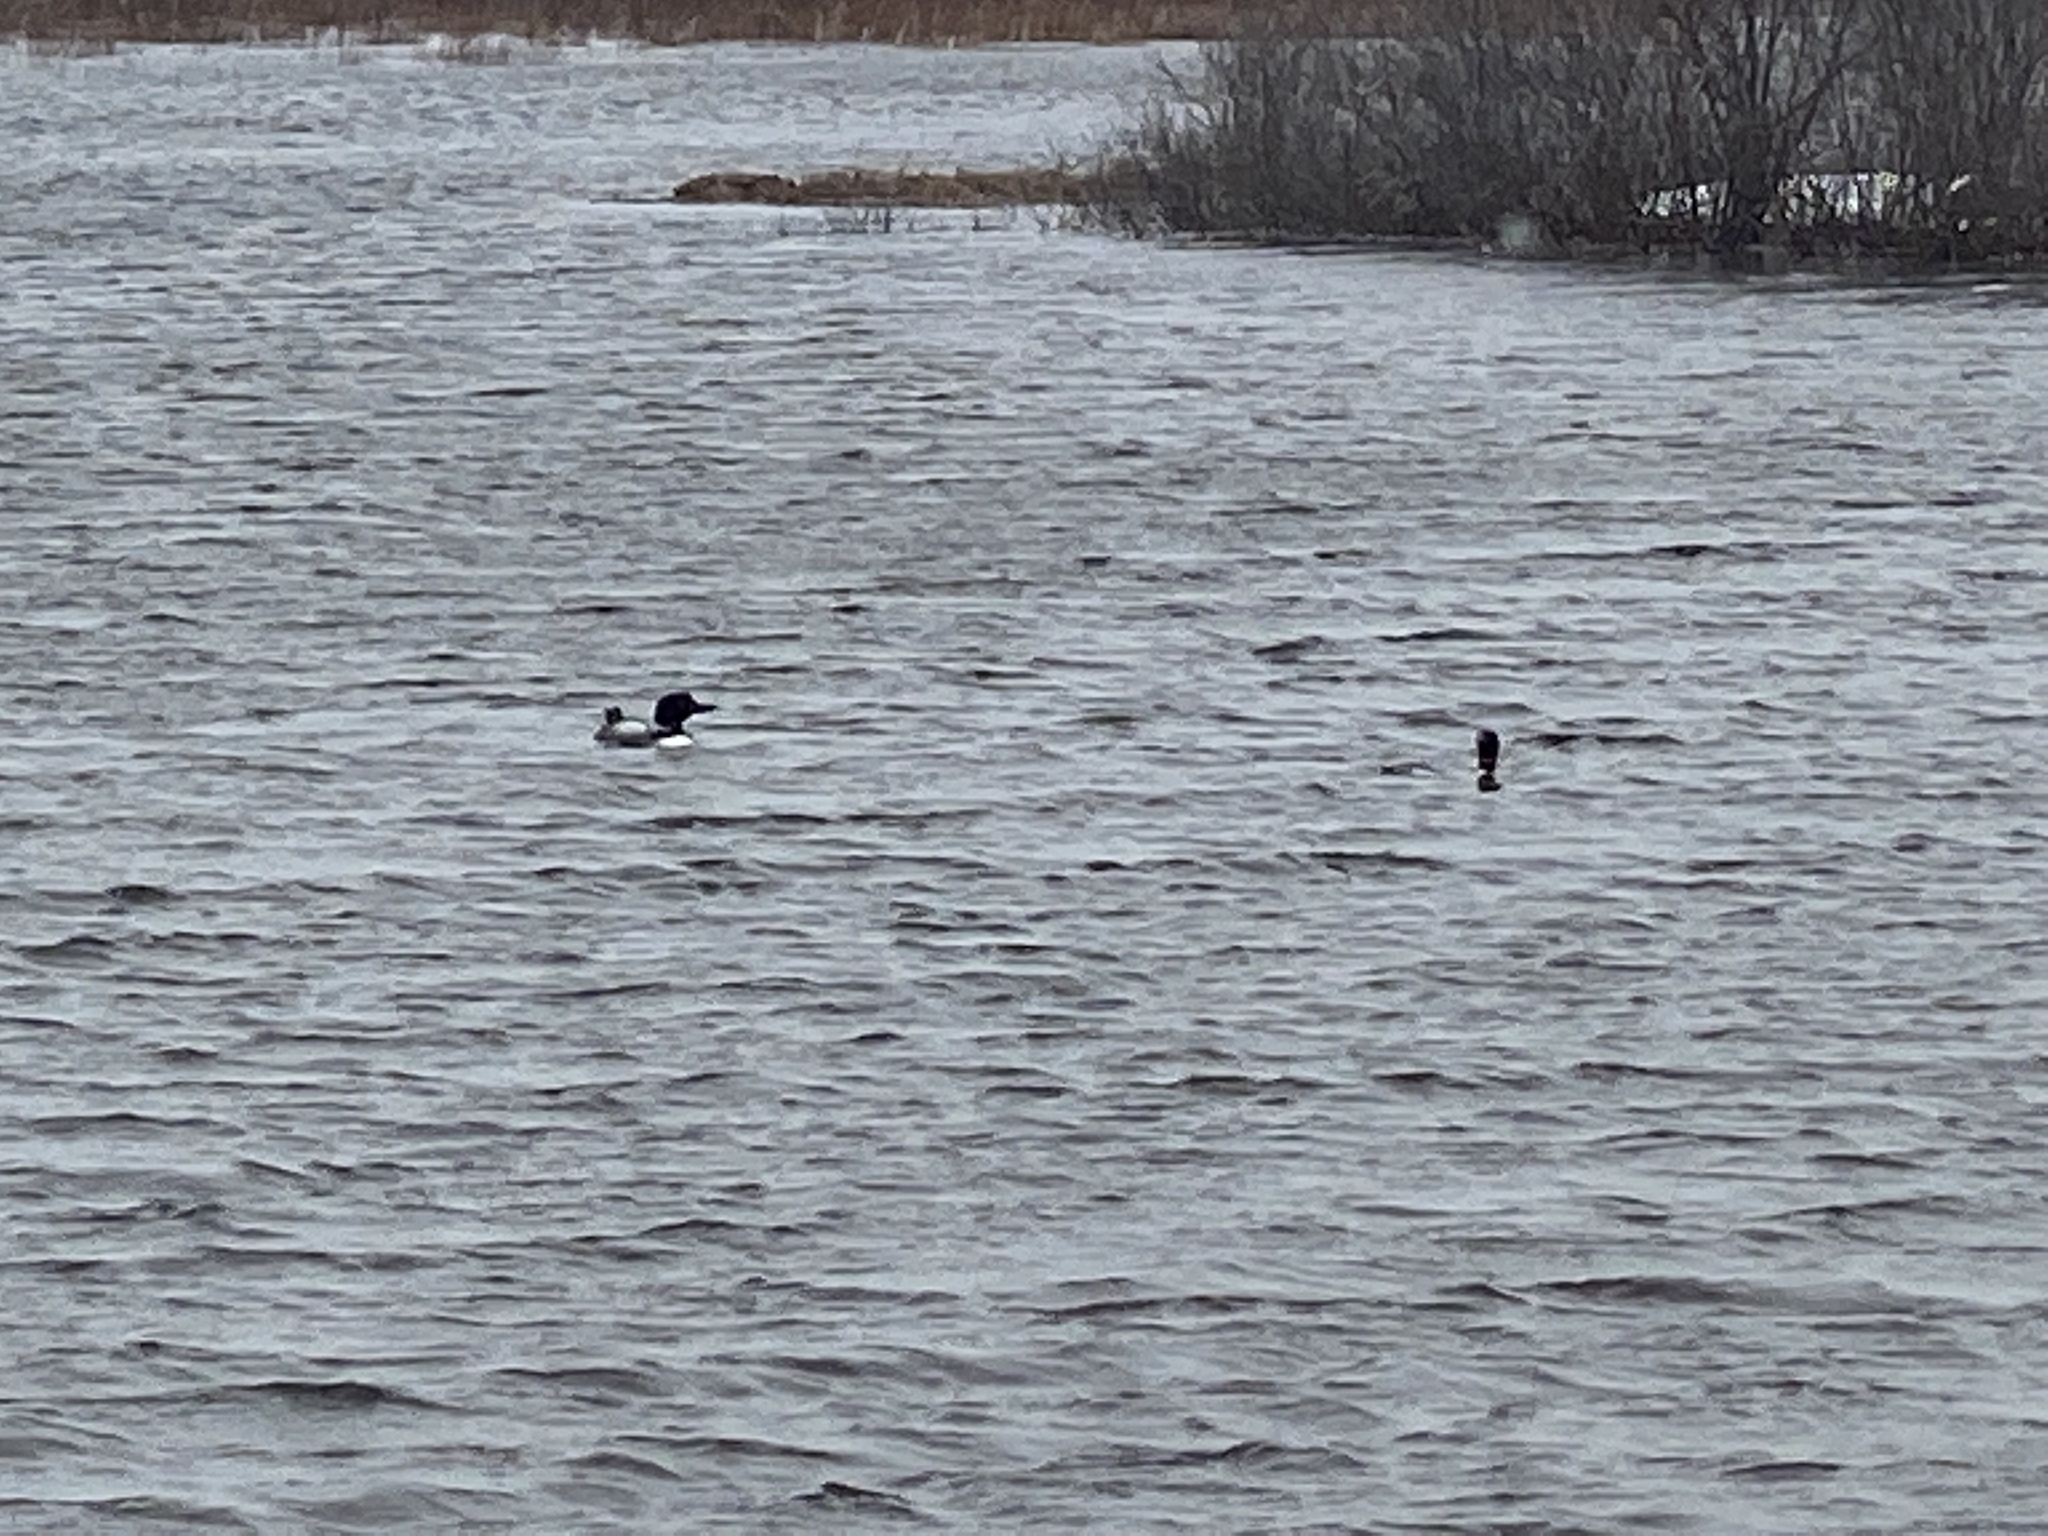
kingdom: Animalia
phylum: Chordata
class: Aves
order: Gaviiformes
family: Gaviidae
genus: Gavia
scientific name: Gavia immer
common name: Common loon
